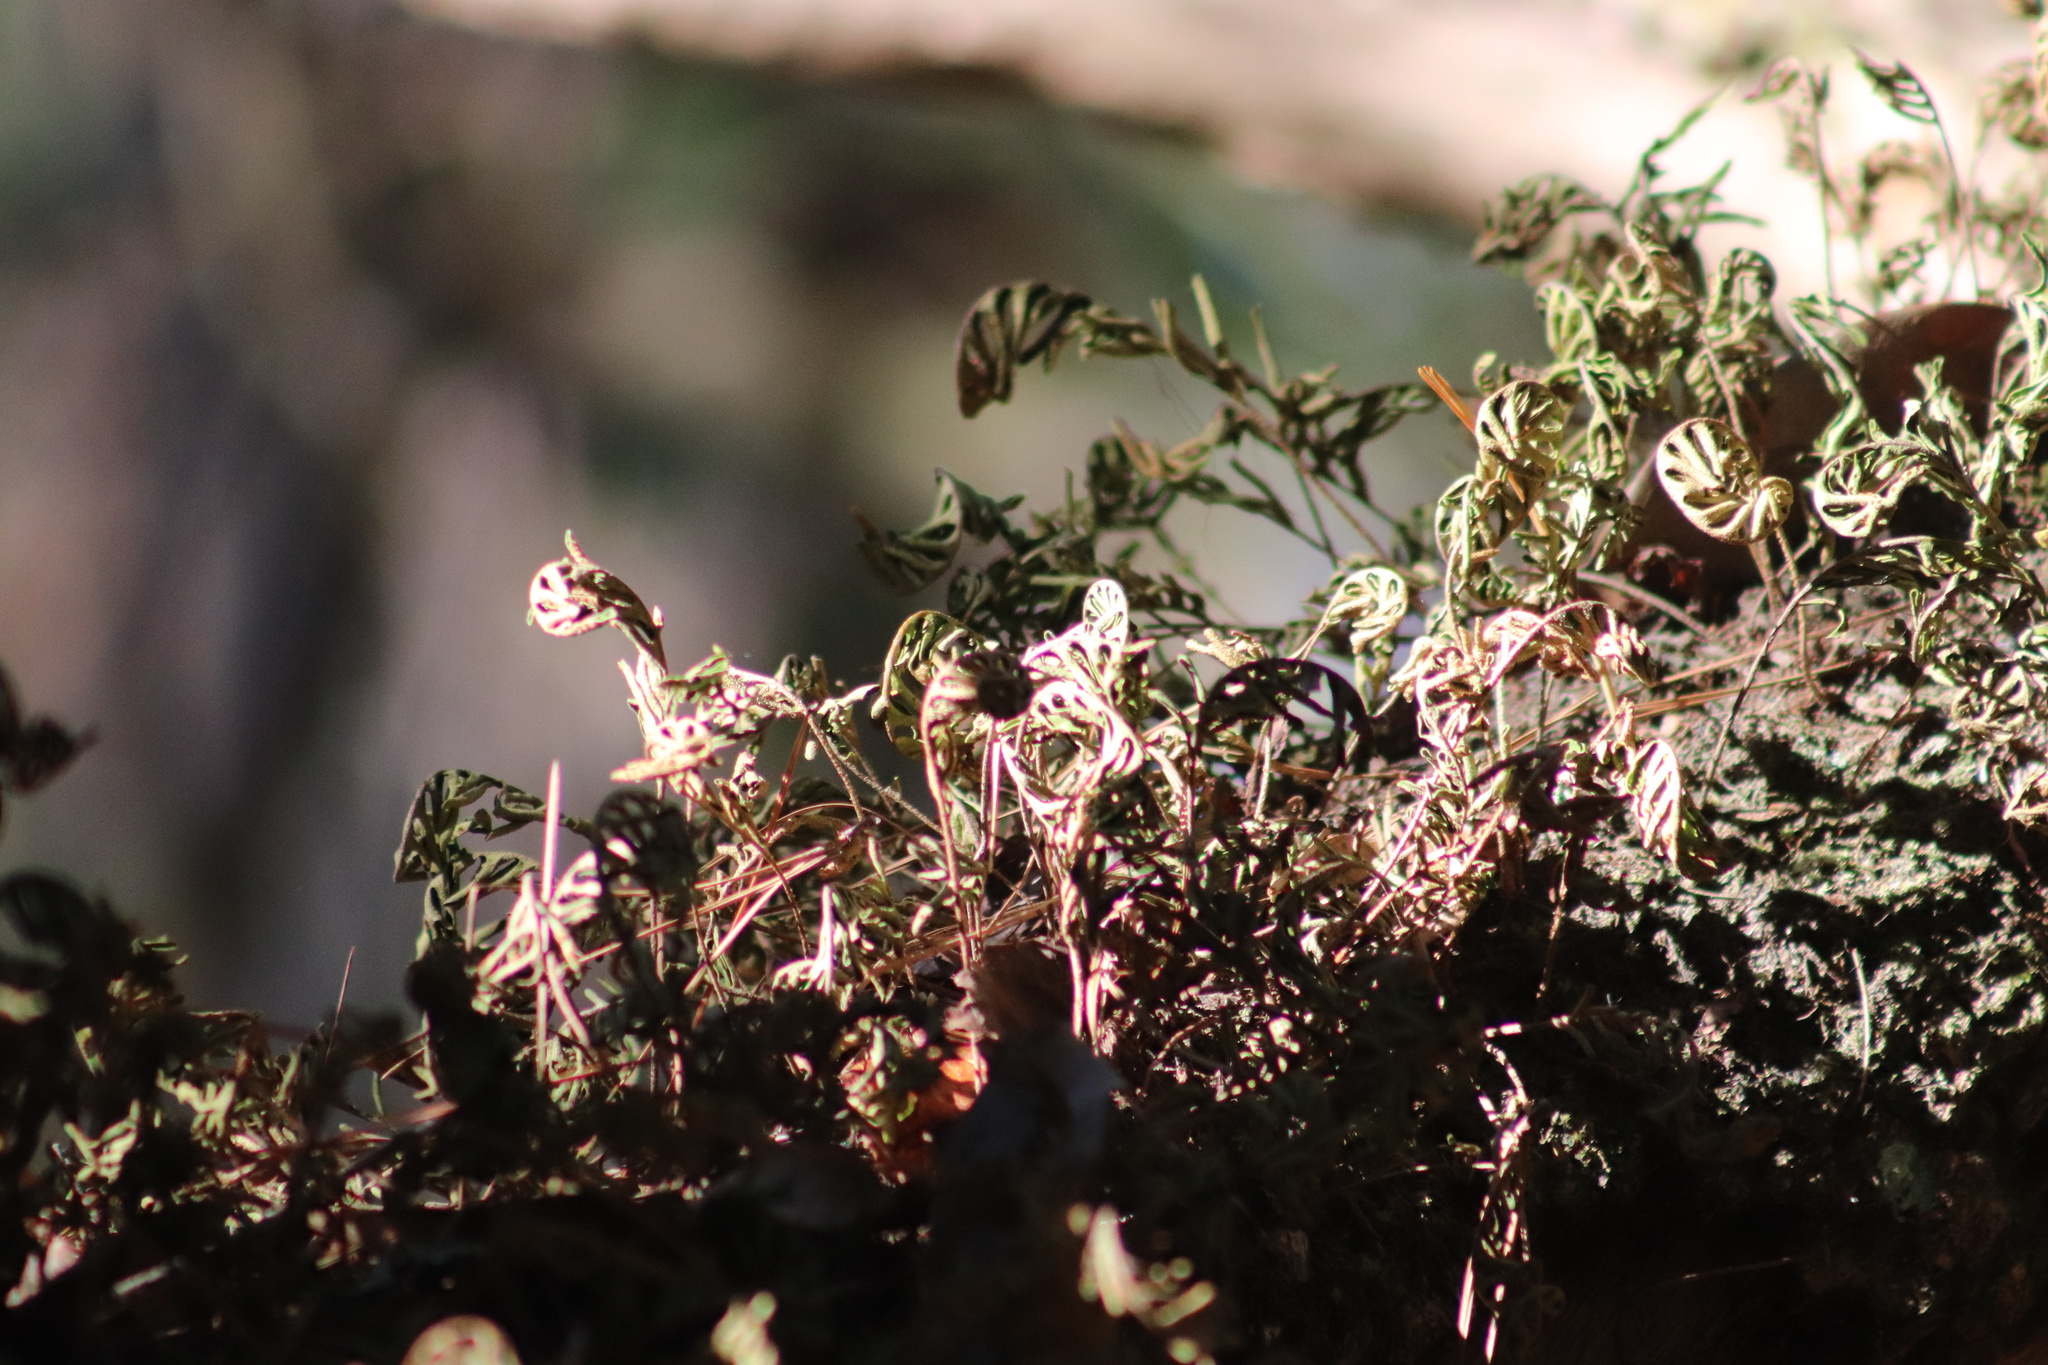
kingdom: Plantae
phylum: Tracheophyta
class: Polypodiopsida
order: Polypodiales
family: Polypodiaceae
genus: Pleopeltis
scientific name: Pleopeltis michauxiana
